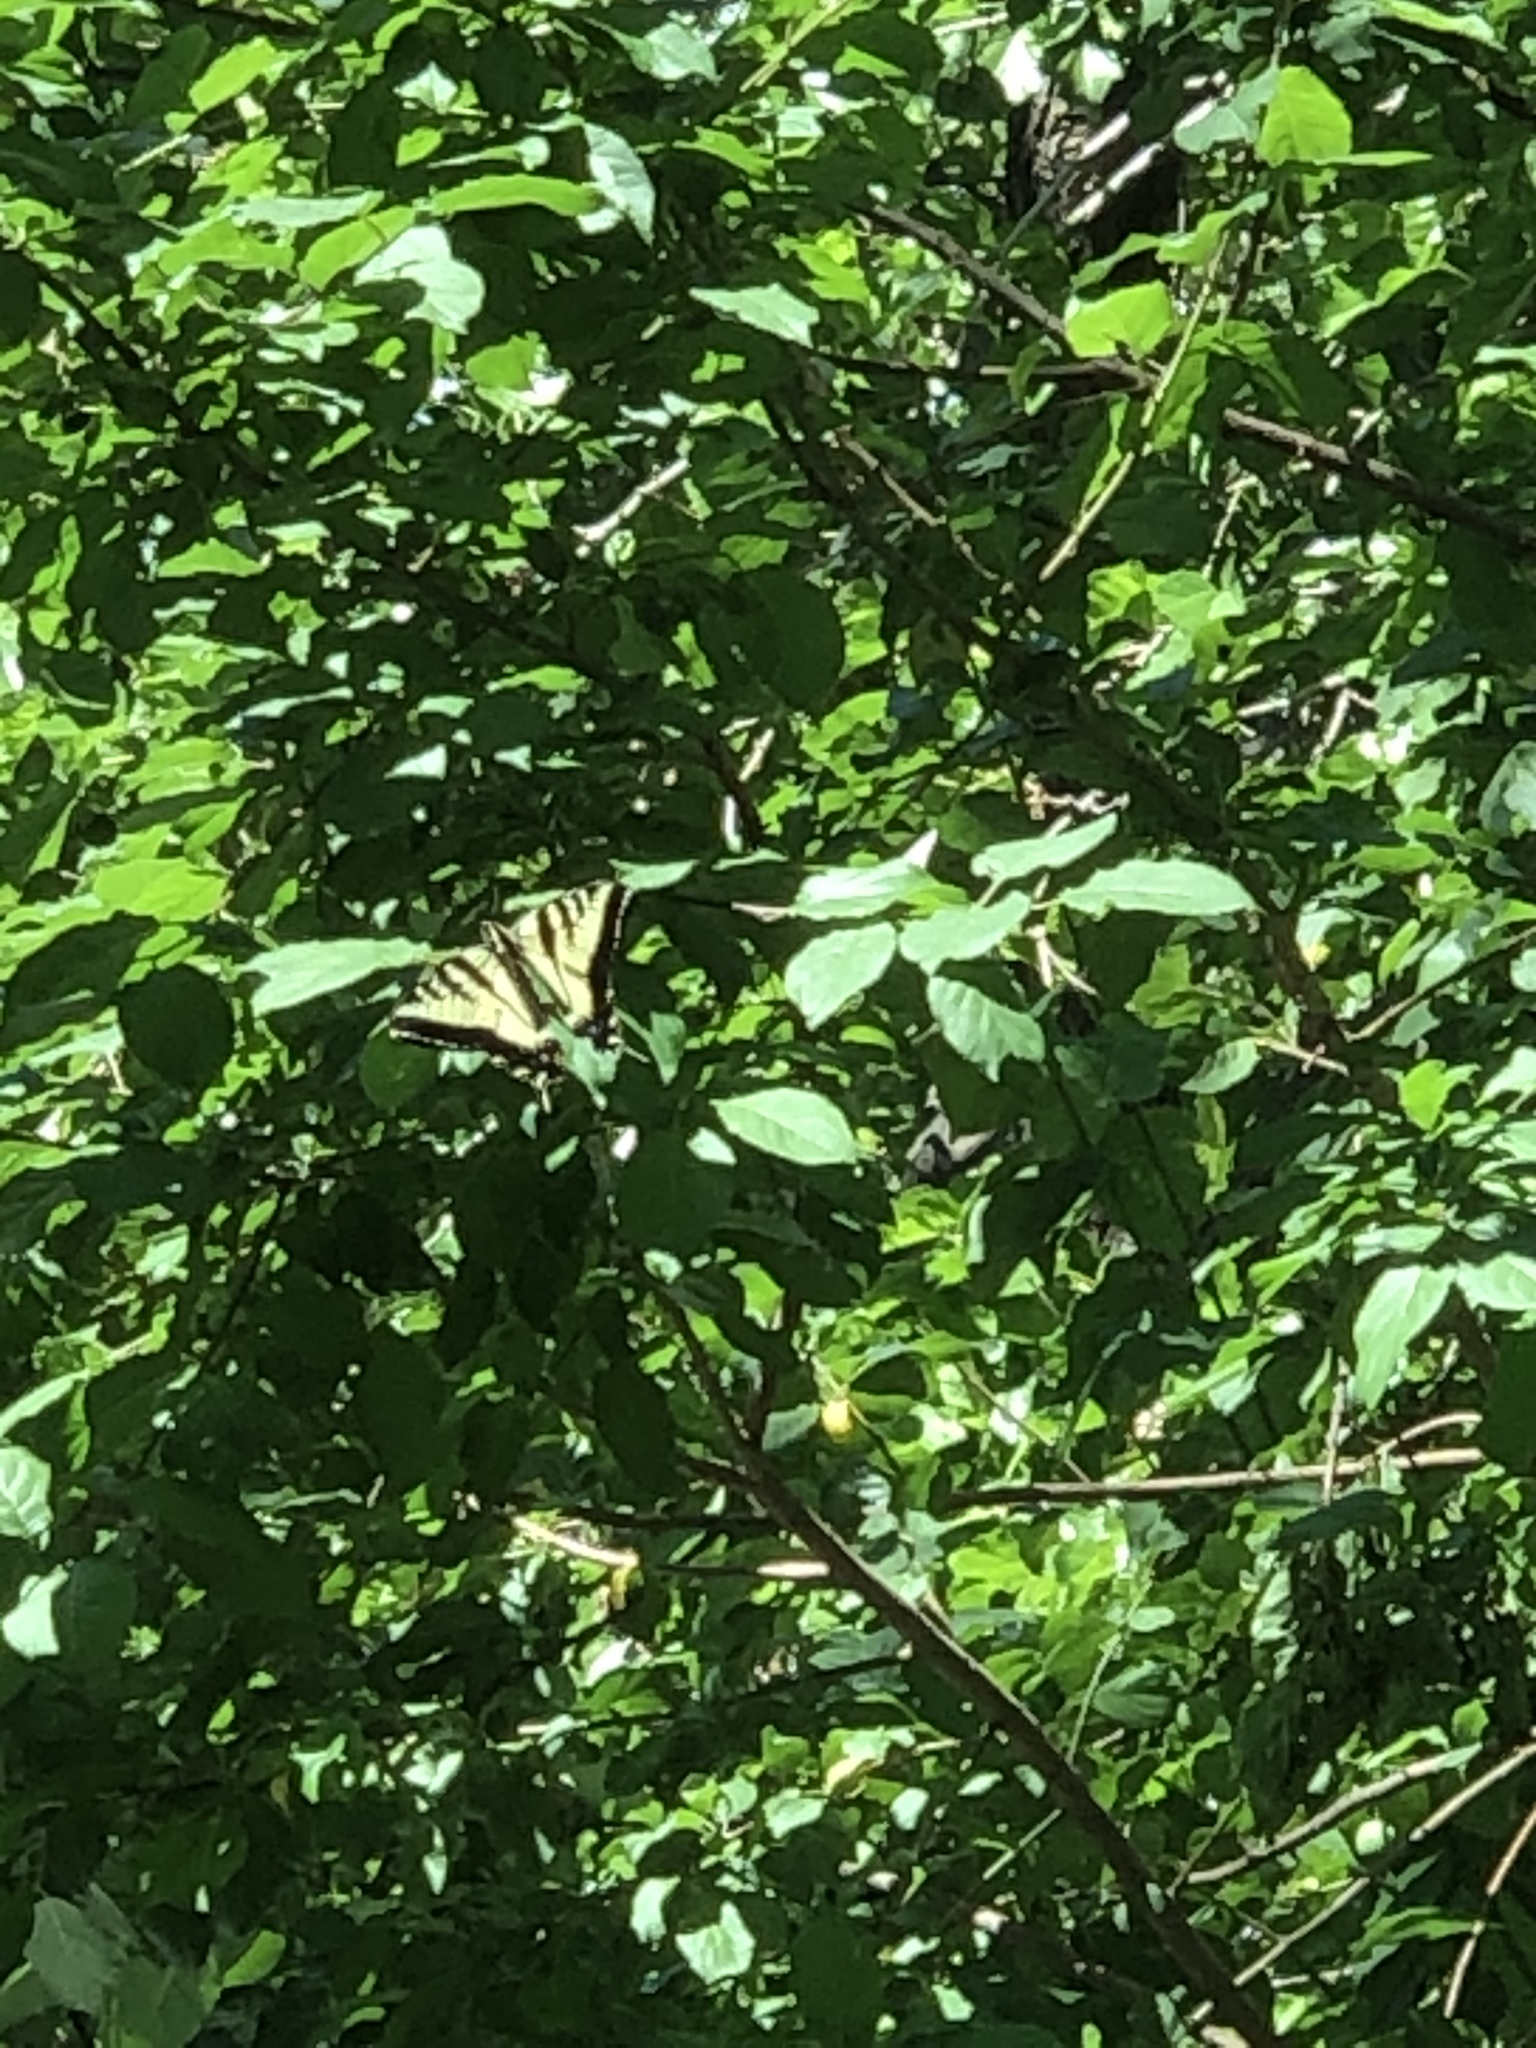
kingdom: Animalia
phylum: Arthropoda
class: Insecta
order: Lepidoptera
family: Papilionidae
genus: Papilio
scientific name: Papilio rutulus
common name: Western tiger swallowtail
